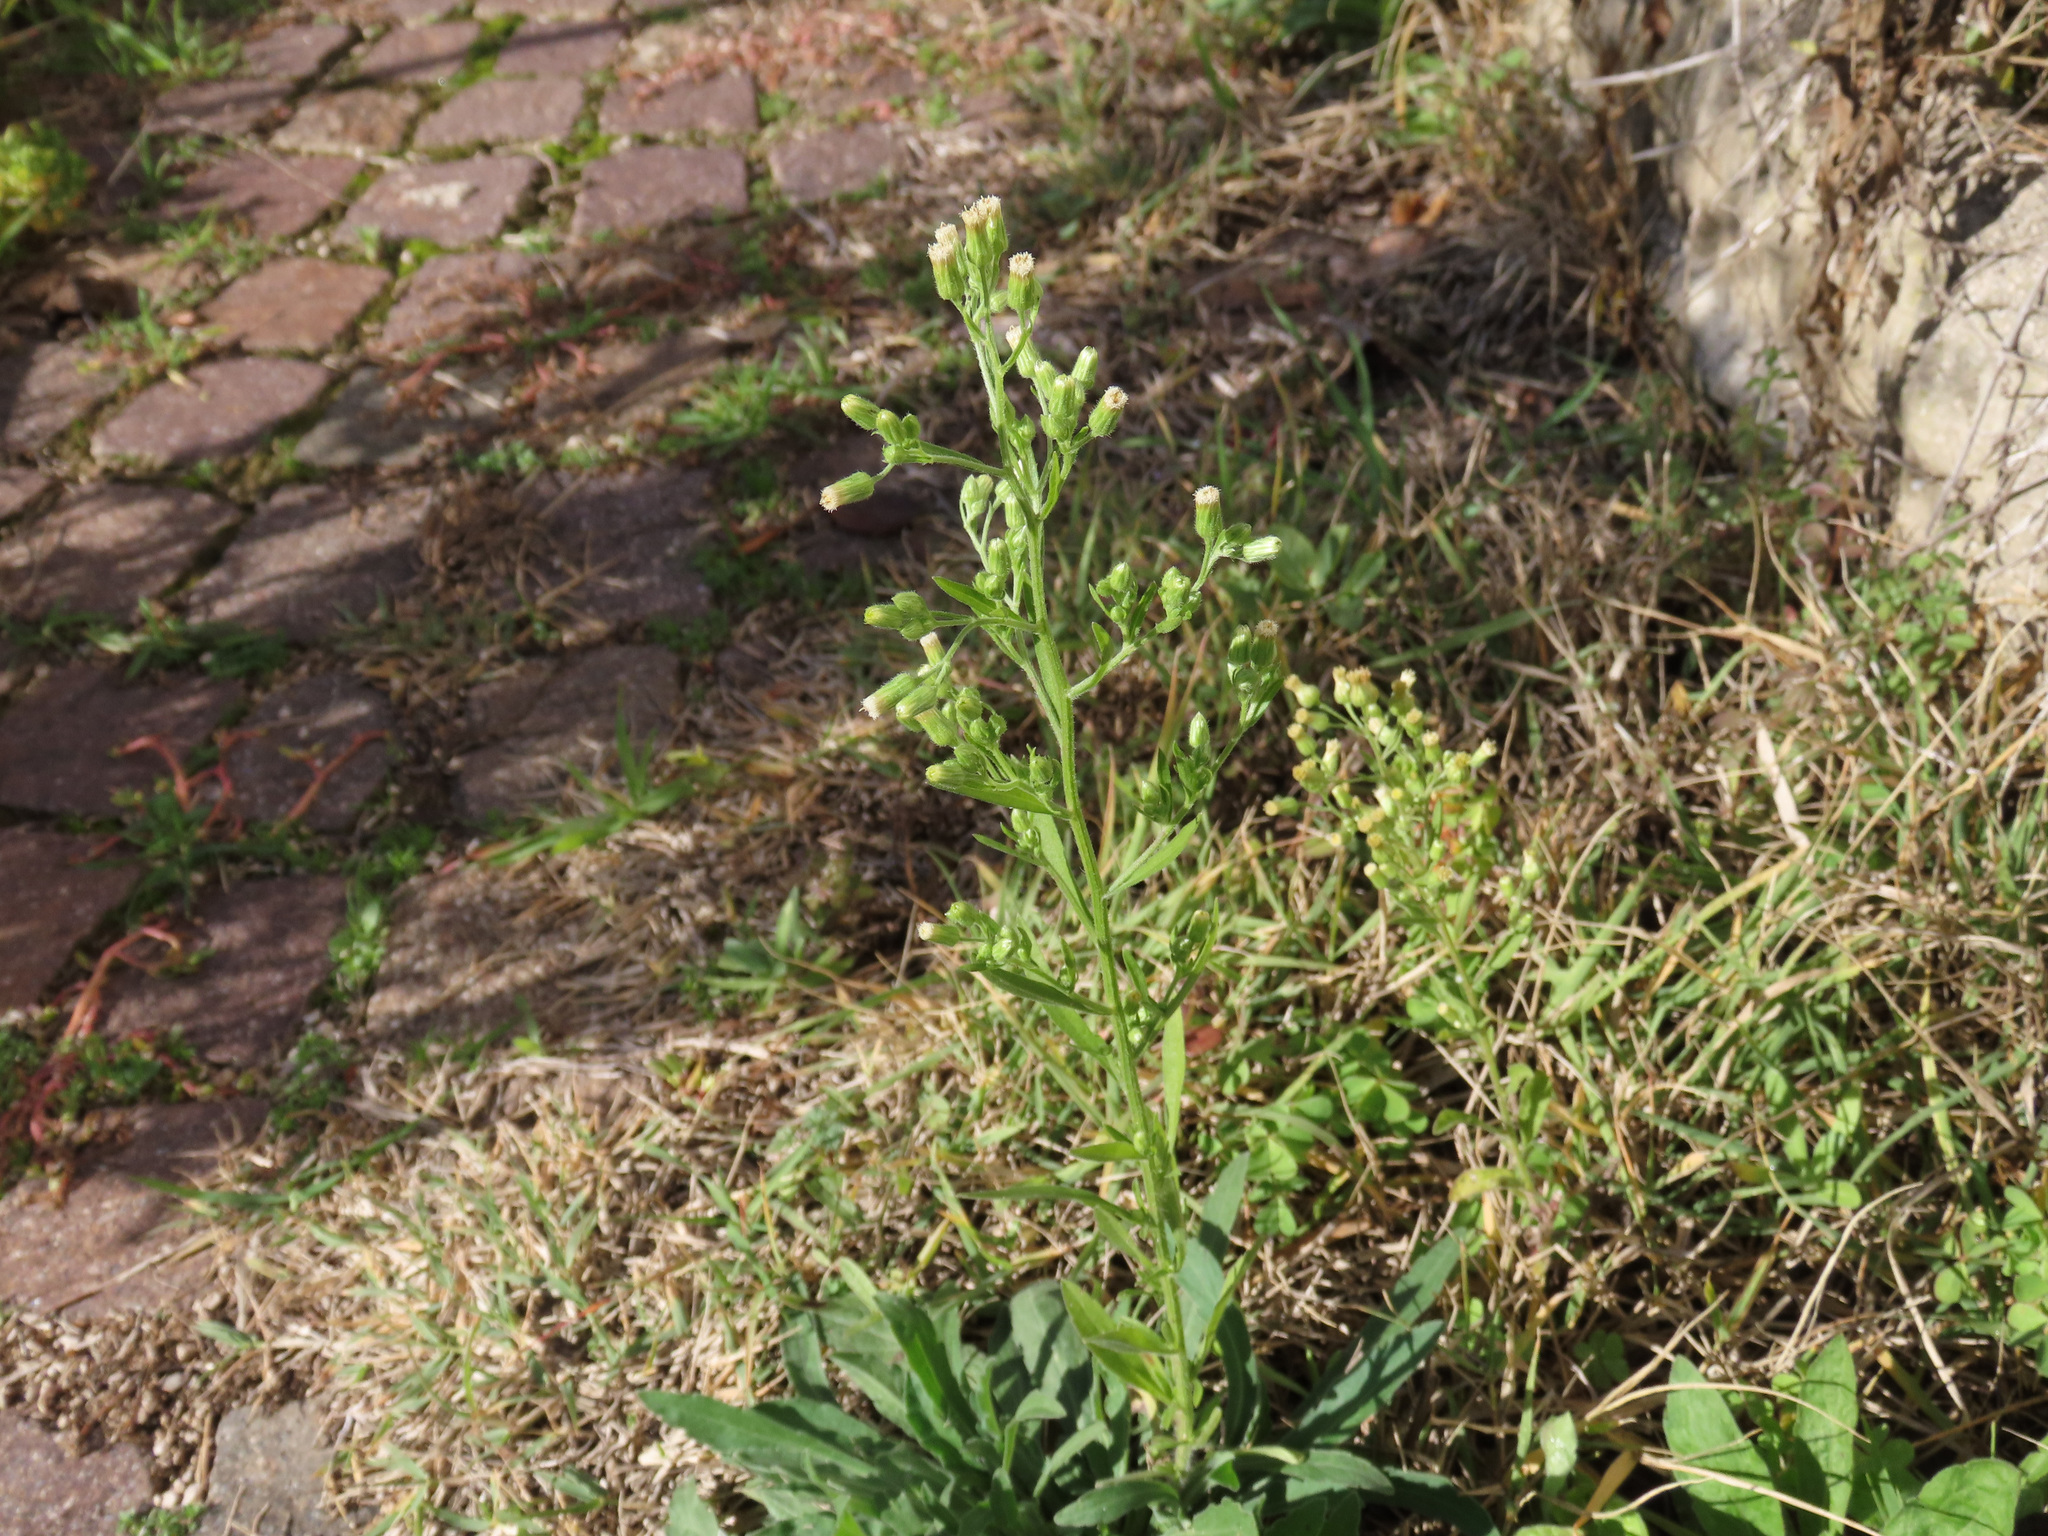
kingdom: Plantae
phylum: Tracheophyta
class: Magnoliopsida
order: Asterales
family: Asteraceae
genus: Erigeron
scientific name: Erigeron sumatrensis
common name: Daisy
